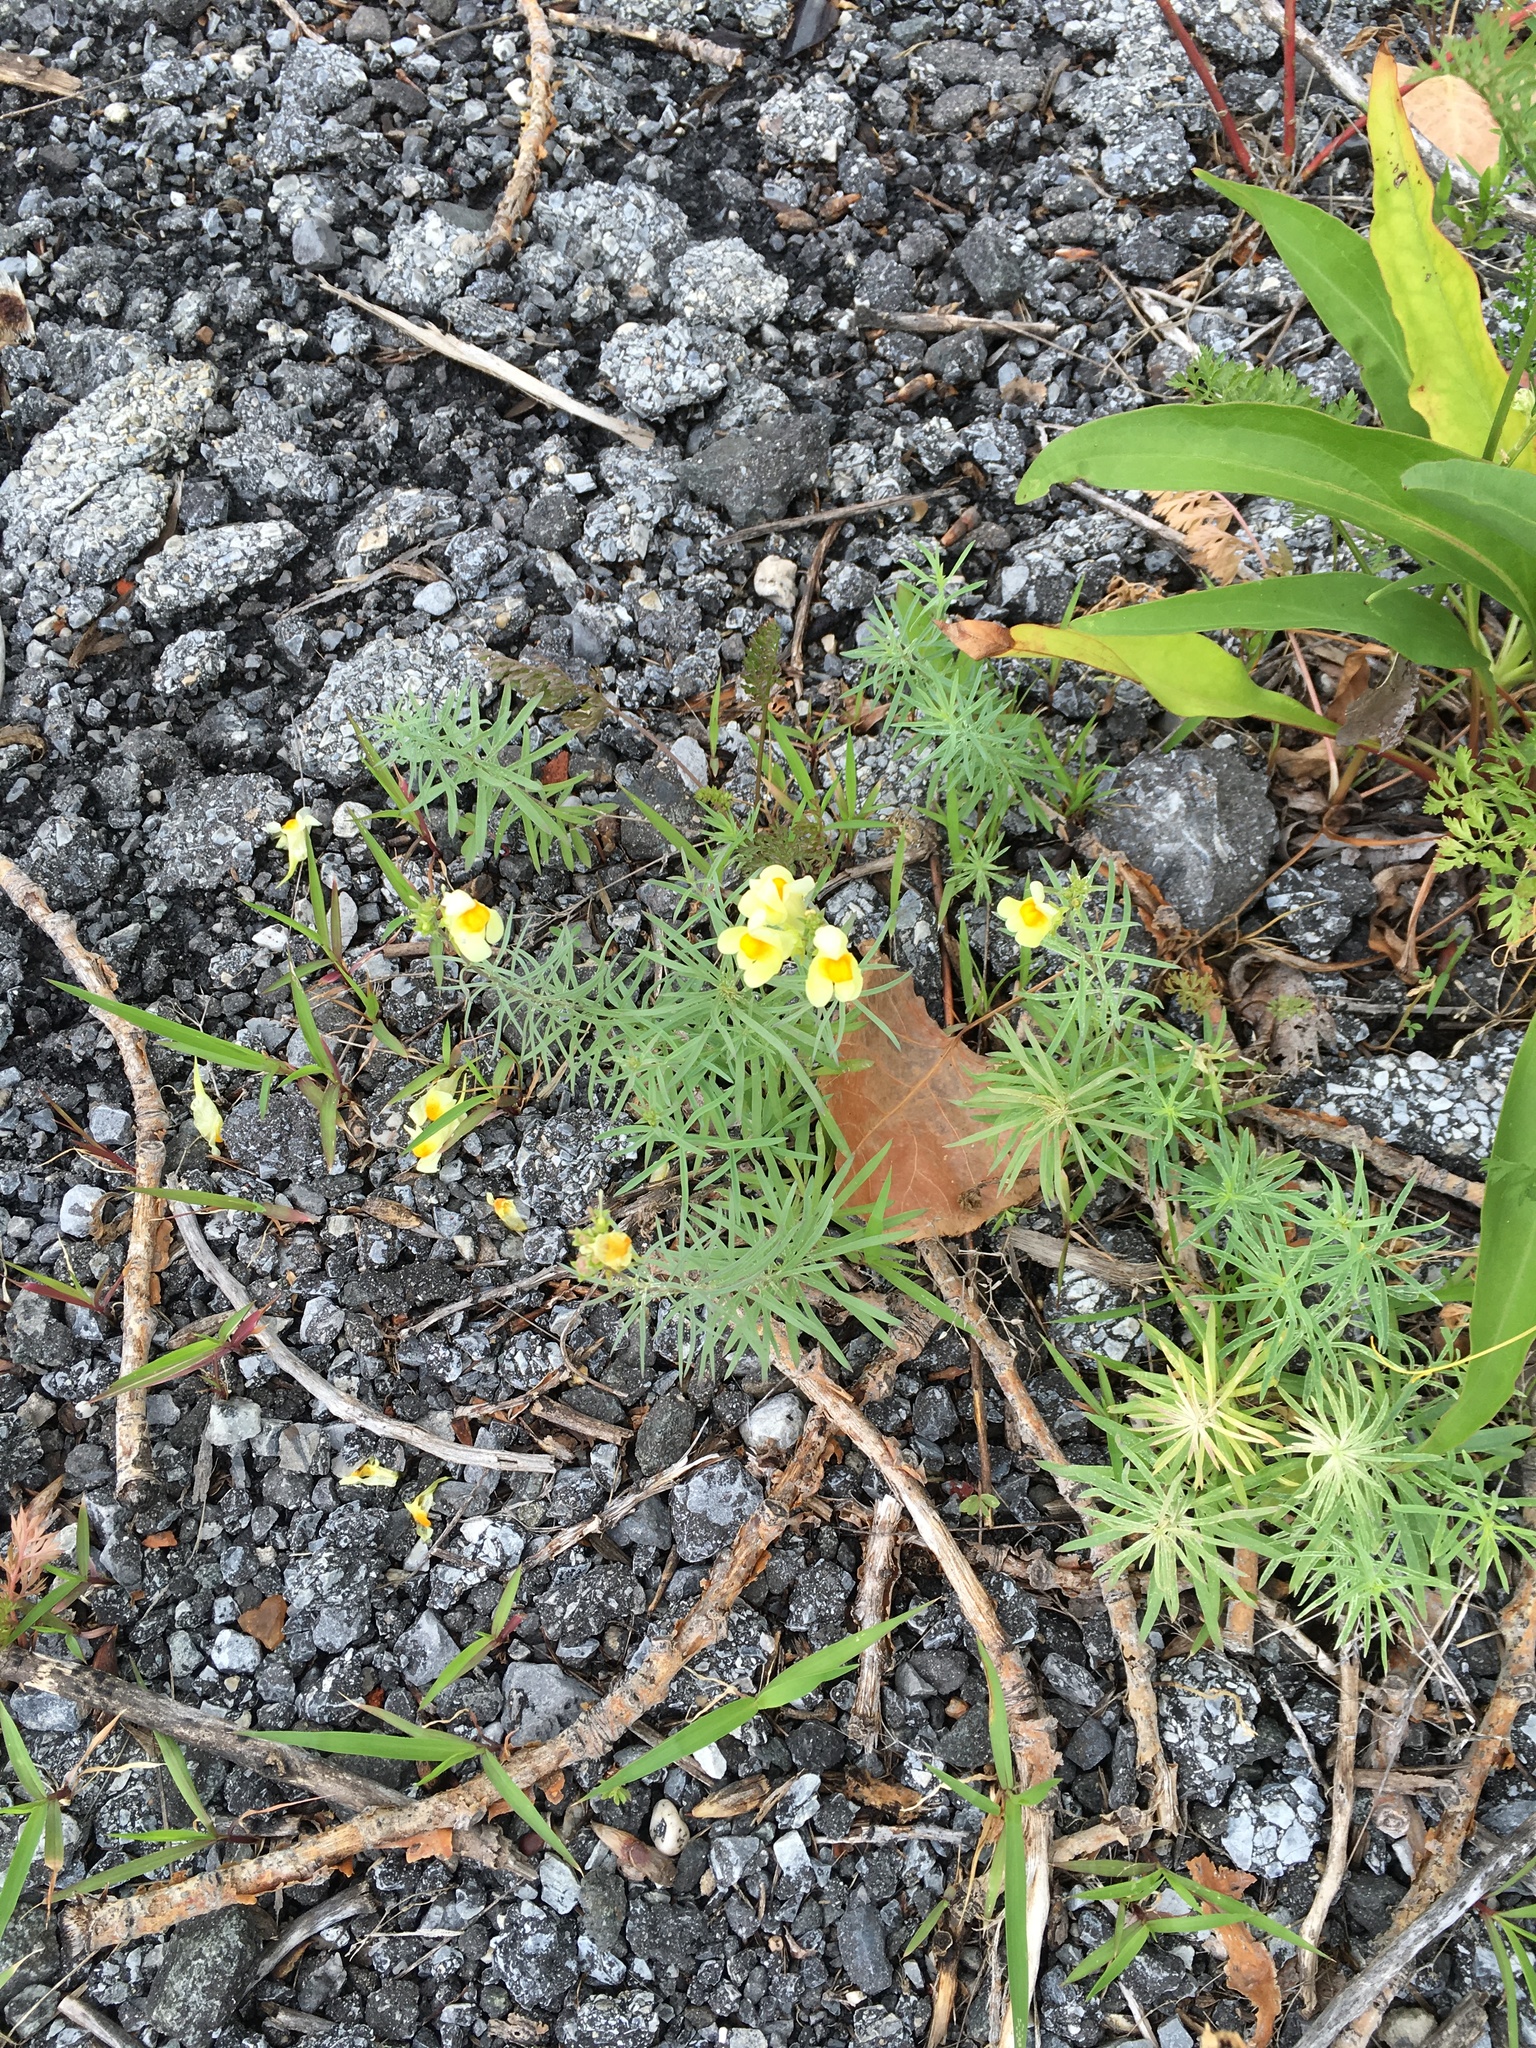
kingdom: Plantae
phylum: Tracheophyta
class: Magnoliopsida
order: Lamiales
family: Plantaginaceae
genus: Linaria
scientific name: Linaria vulgaris
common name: Butter and eggs
